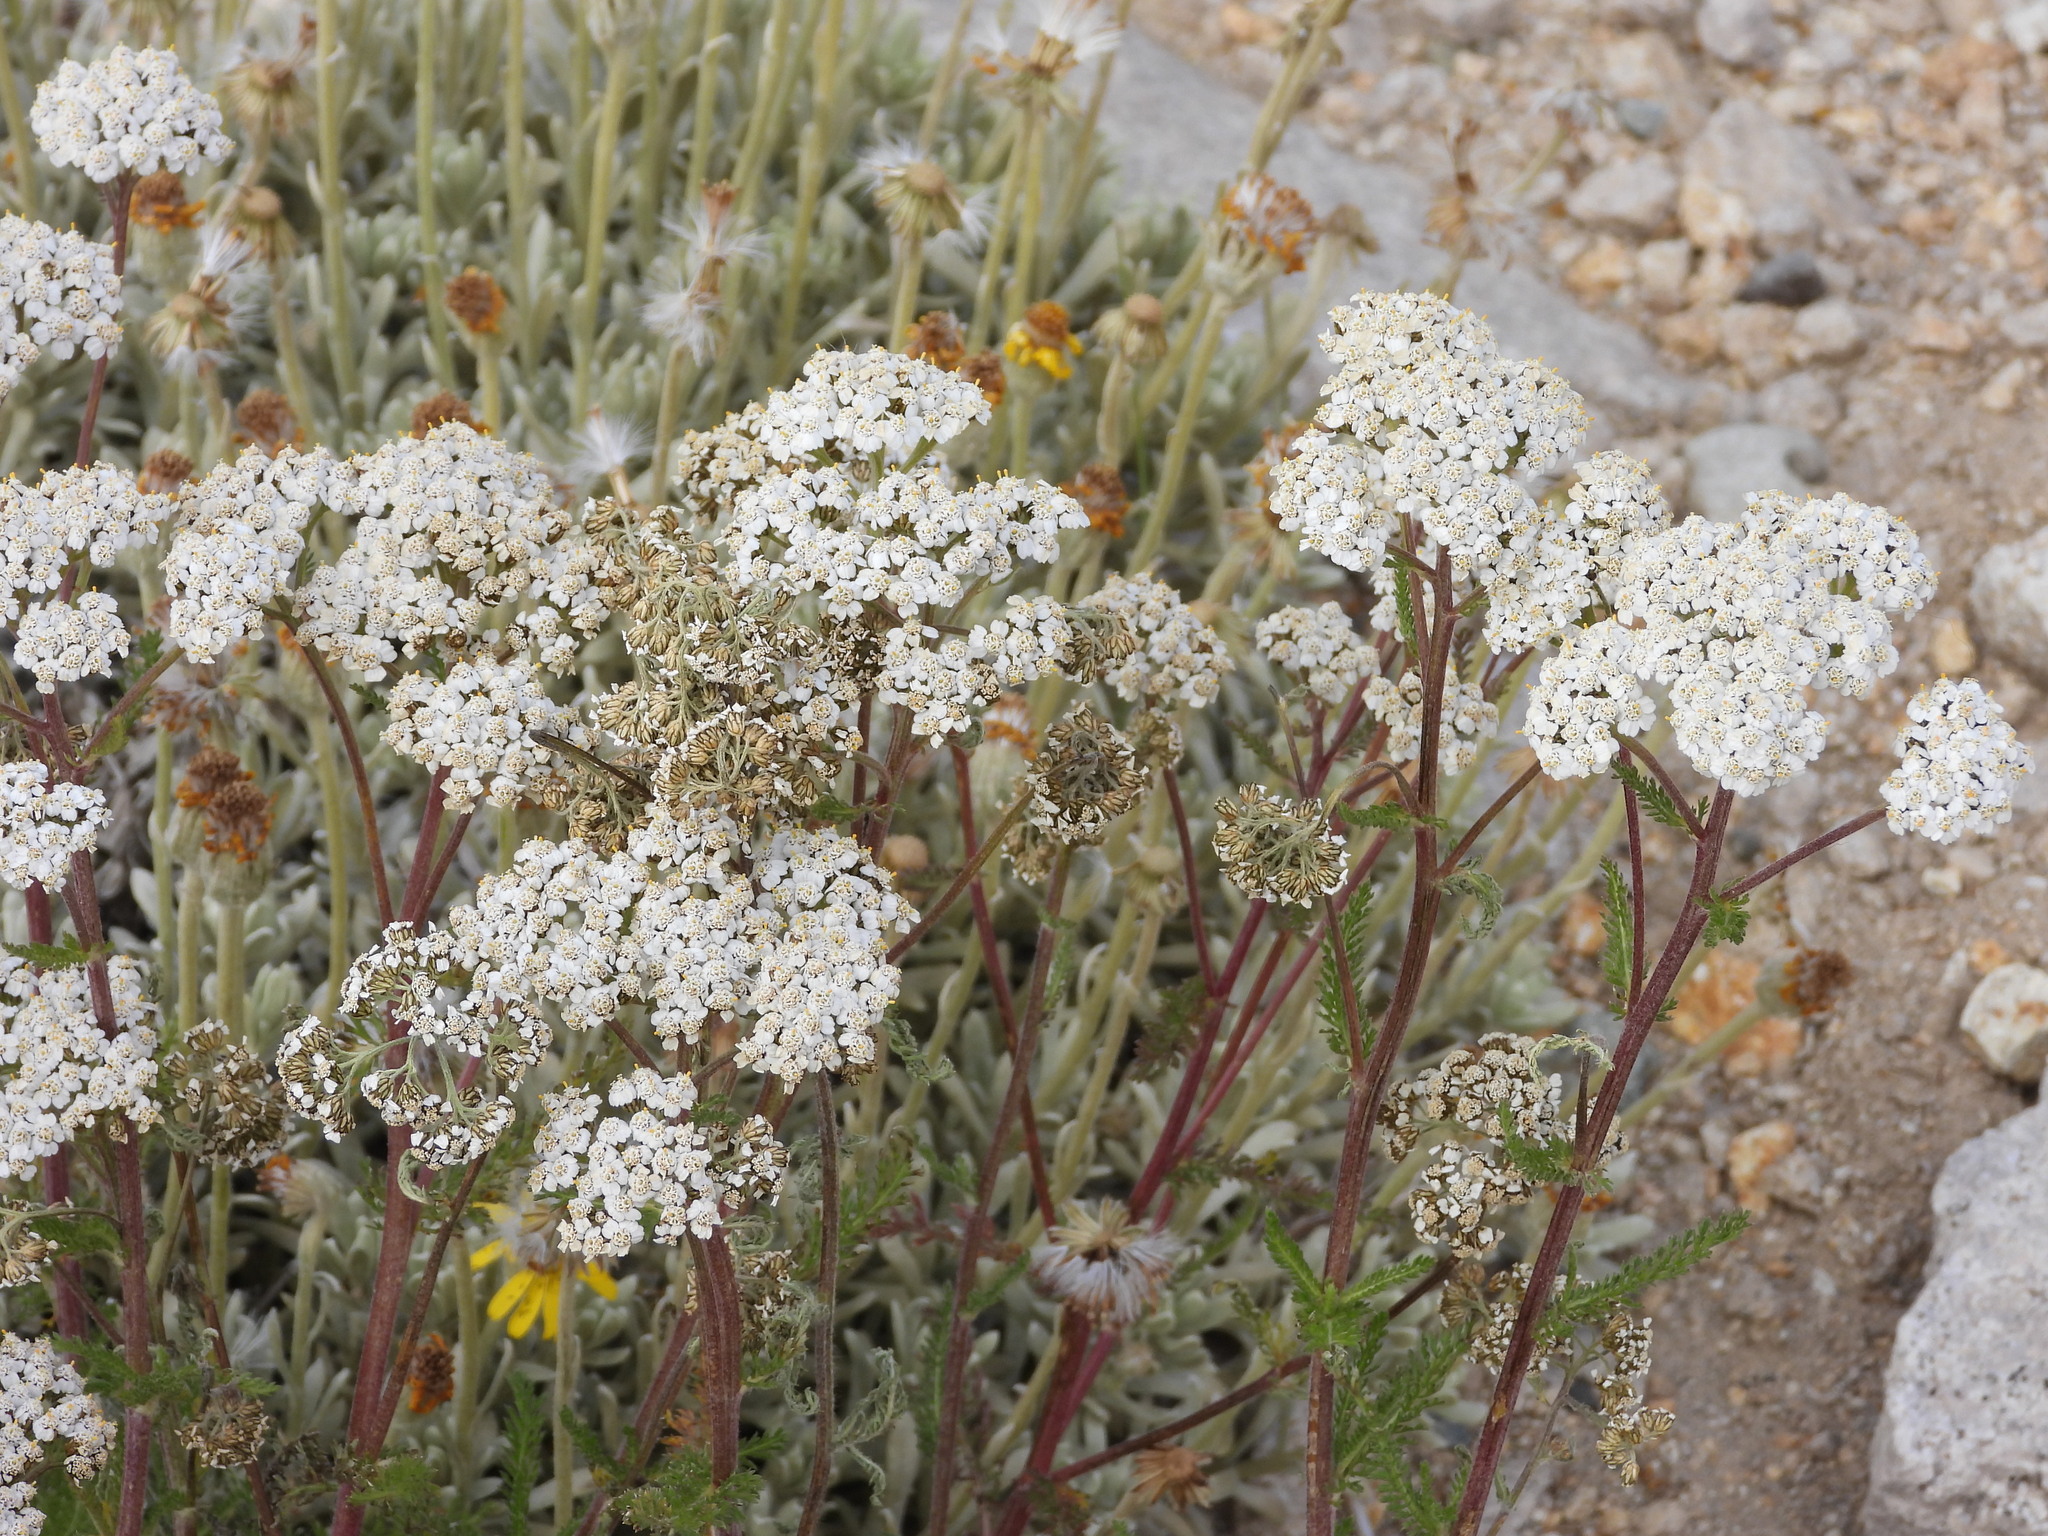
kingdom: Plantae
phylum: Tracheophyta
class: Magnoliopsida
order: Asterales
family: Asteraceae
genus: Achillea
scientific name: Achillea millefolium
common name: Yarrow
